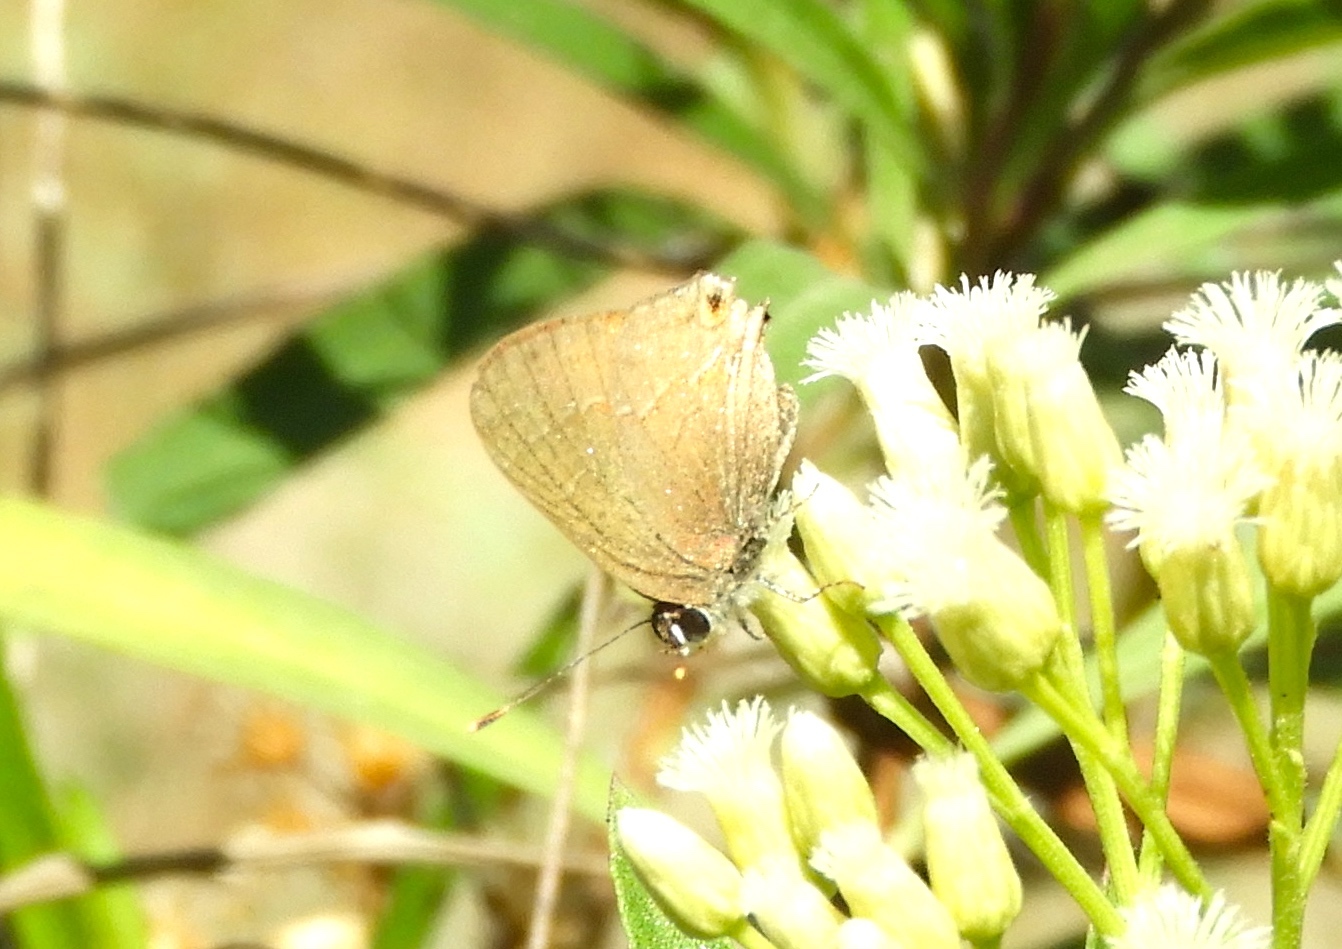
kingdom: Animalia
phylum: Arthropoda
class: Insecta
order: Lepidoptera
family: Lycaenidae
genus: Thecla
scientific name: Thecla joya
